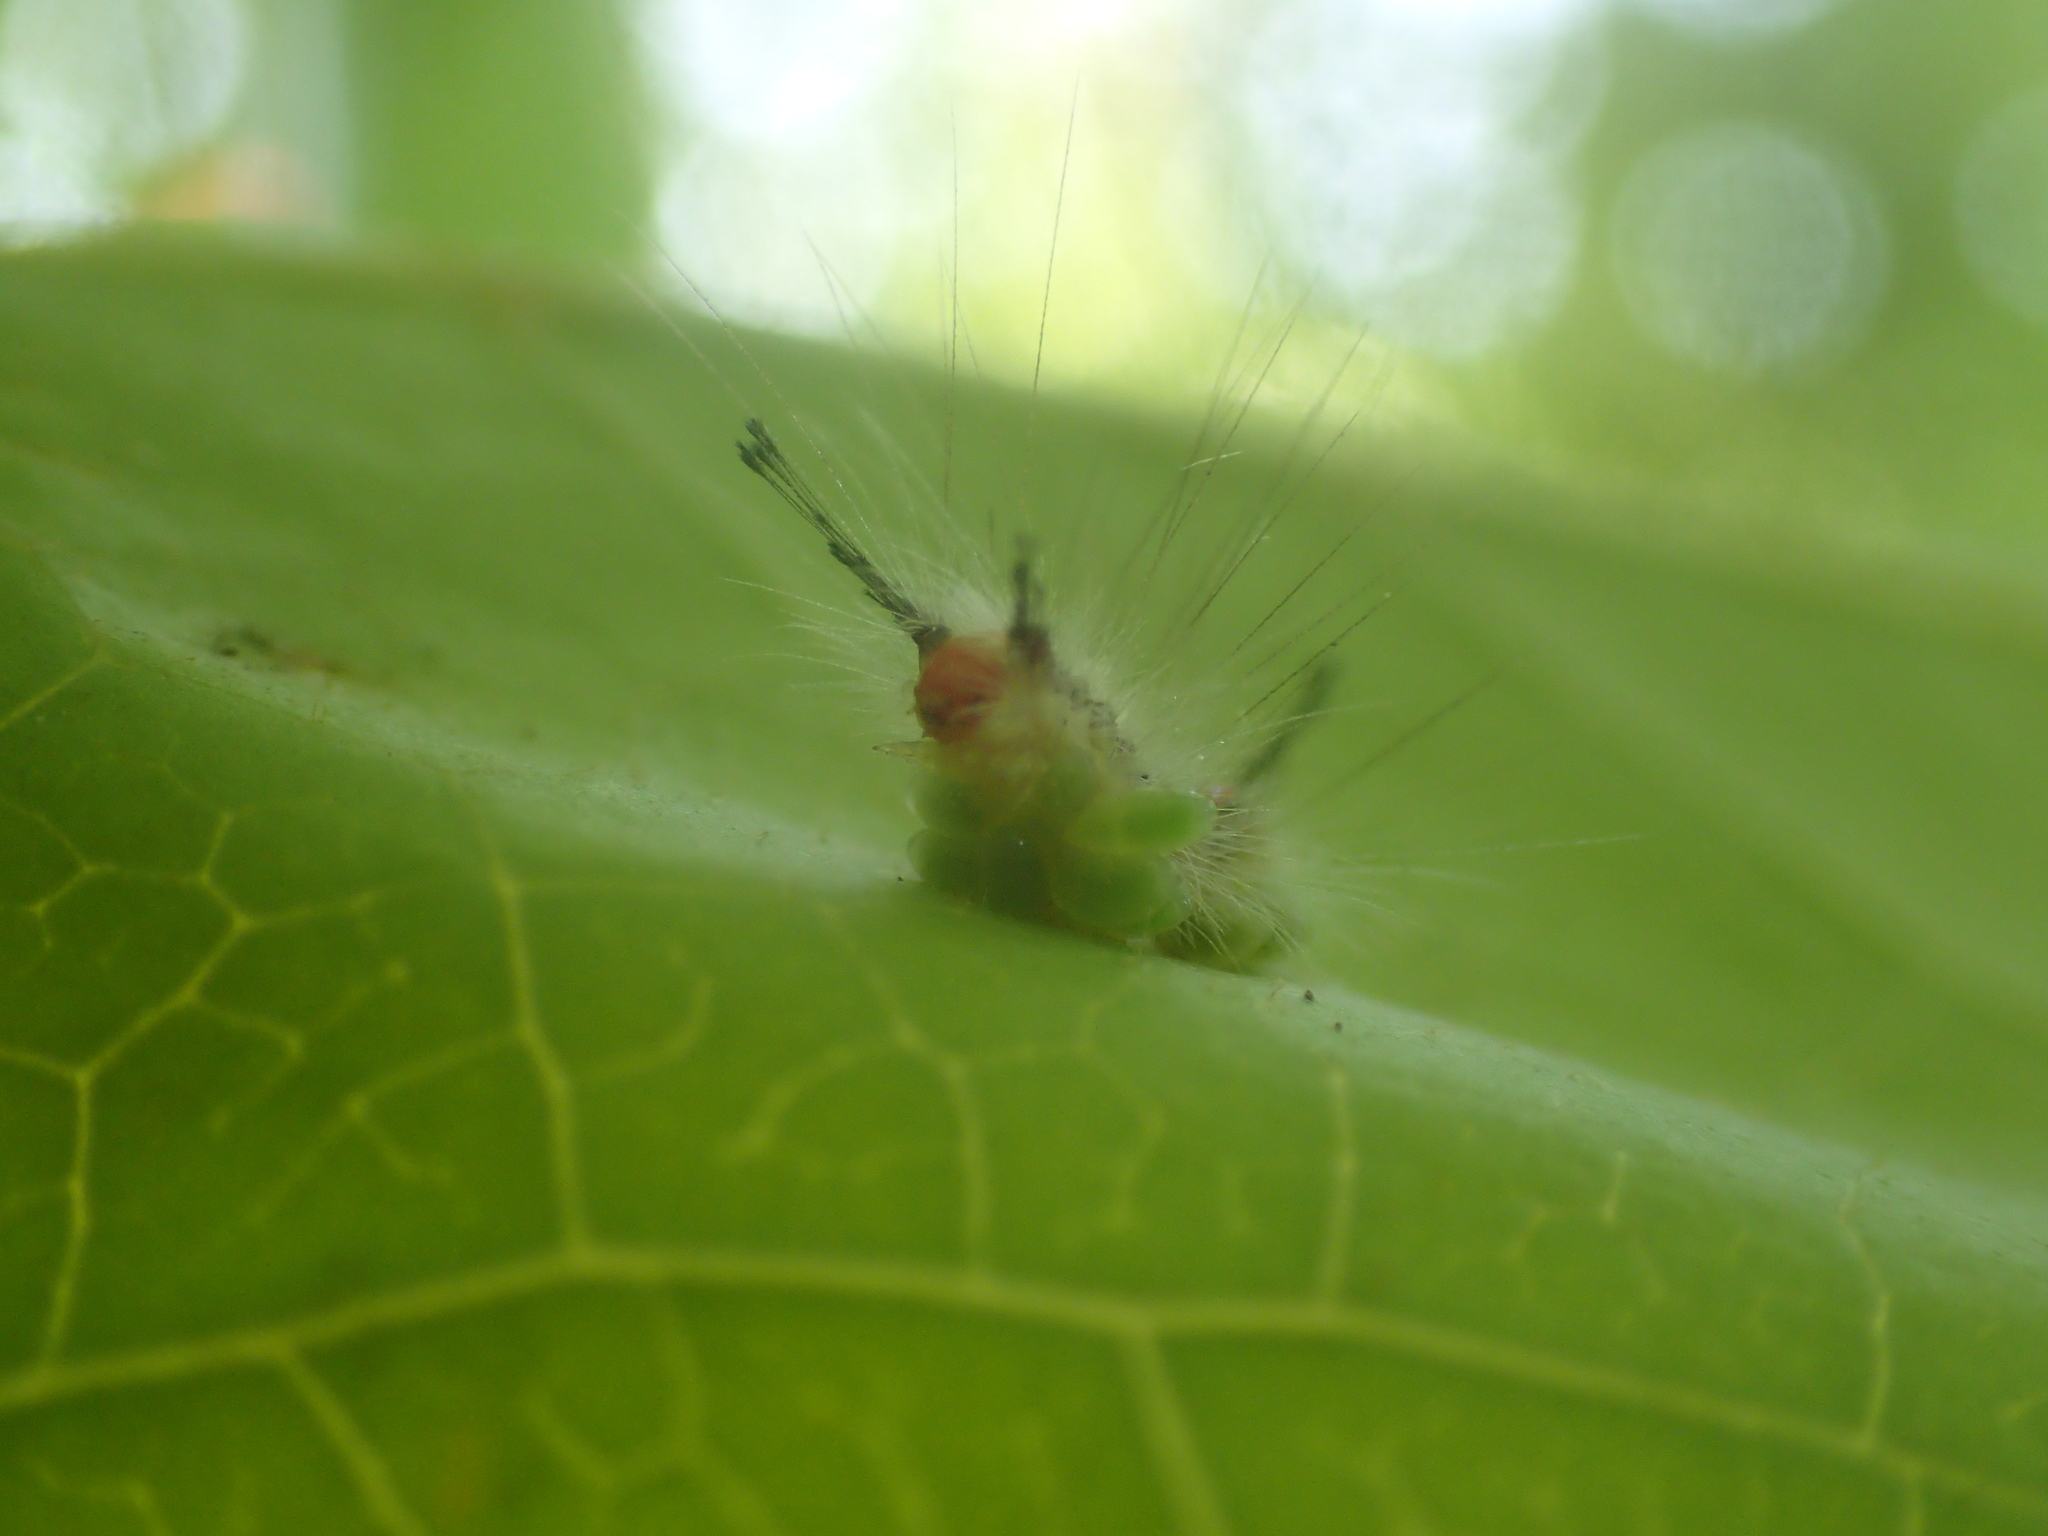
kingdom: Animalia
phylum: Arthropoda
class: Insecta
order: Lepidoptera
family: Erebidae
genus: Orgyia
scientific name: Orgyia leucostigma
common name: White-marked tussock moth
